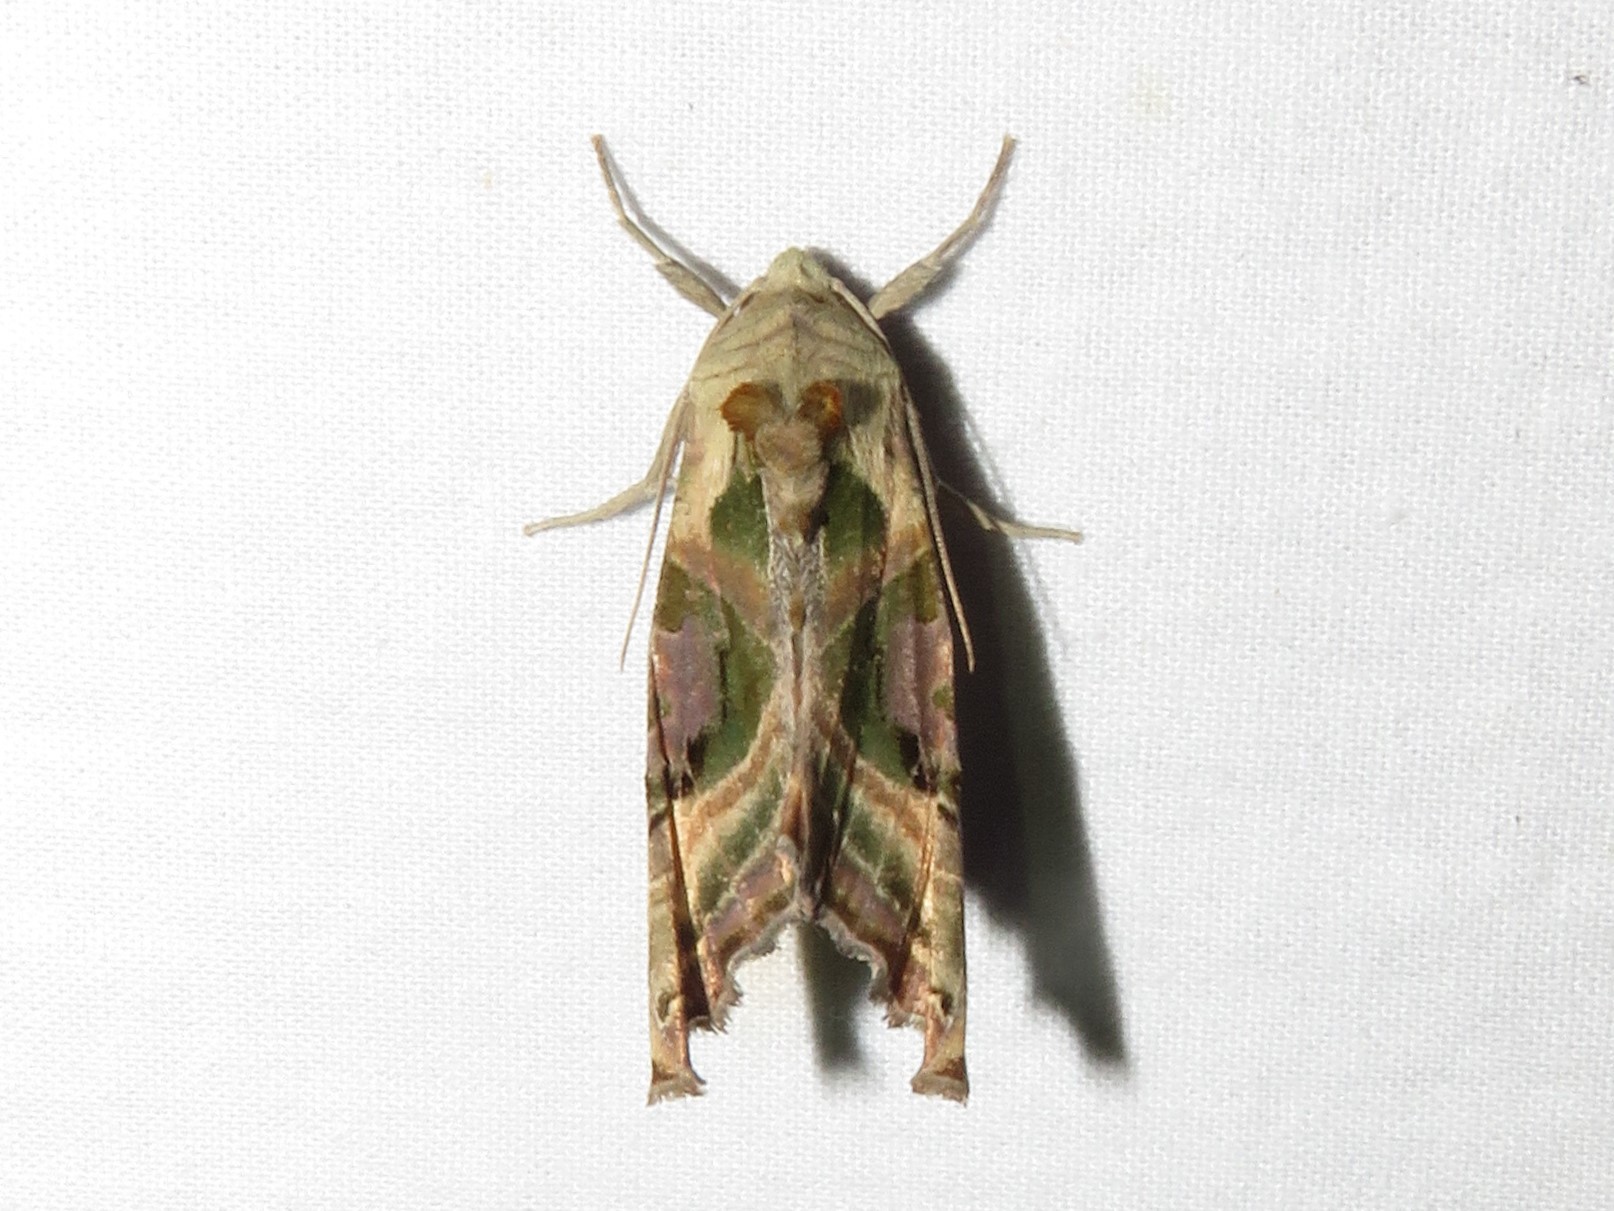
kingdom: Animalia
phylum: Arthropoda
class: Insecta
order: Lepidoptera
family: Noctuidae
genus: Phlogophora
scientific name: Phlogophora iris
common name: Olive angle shades
